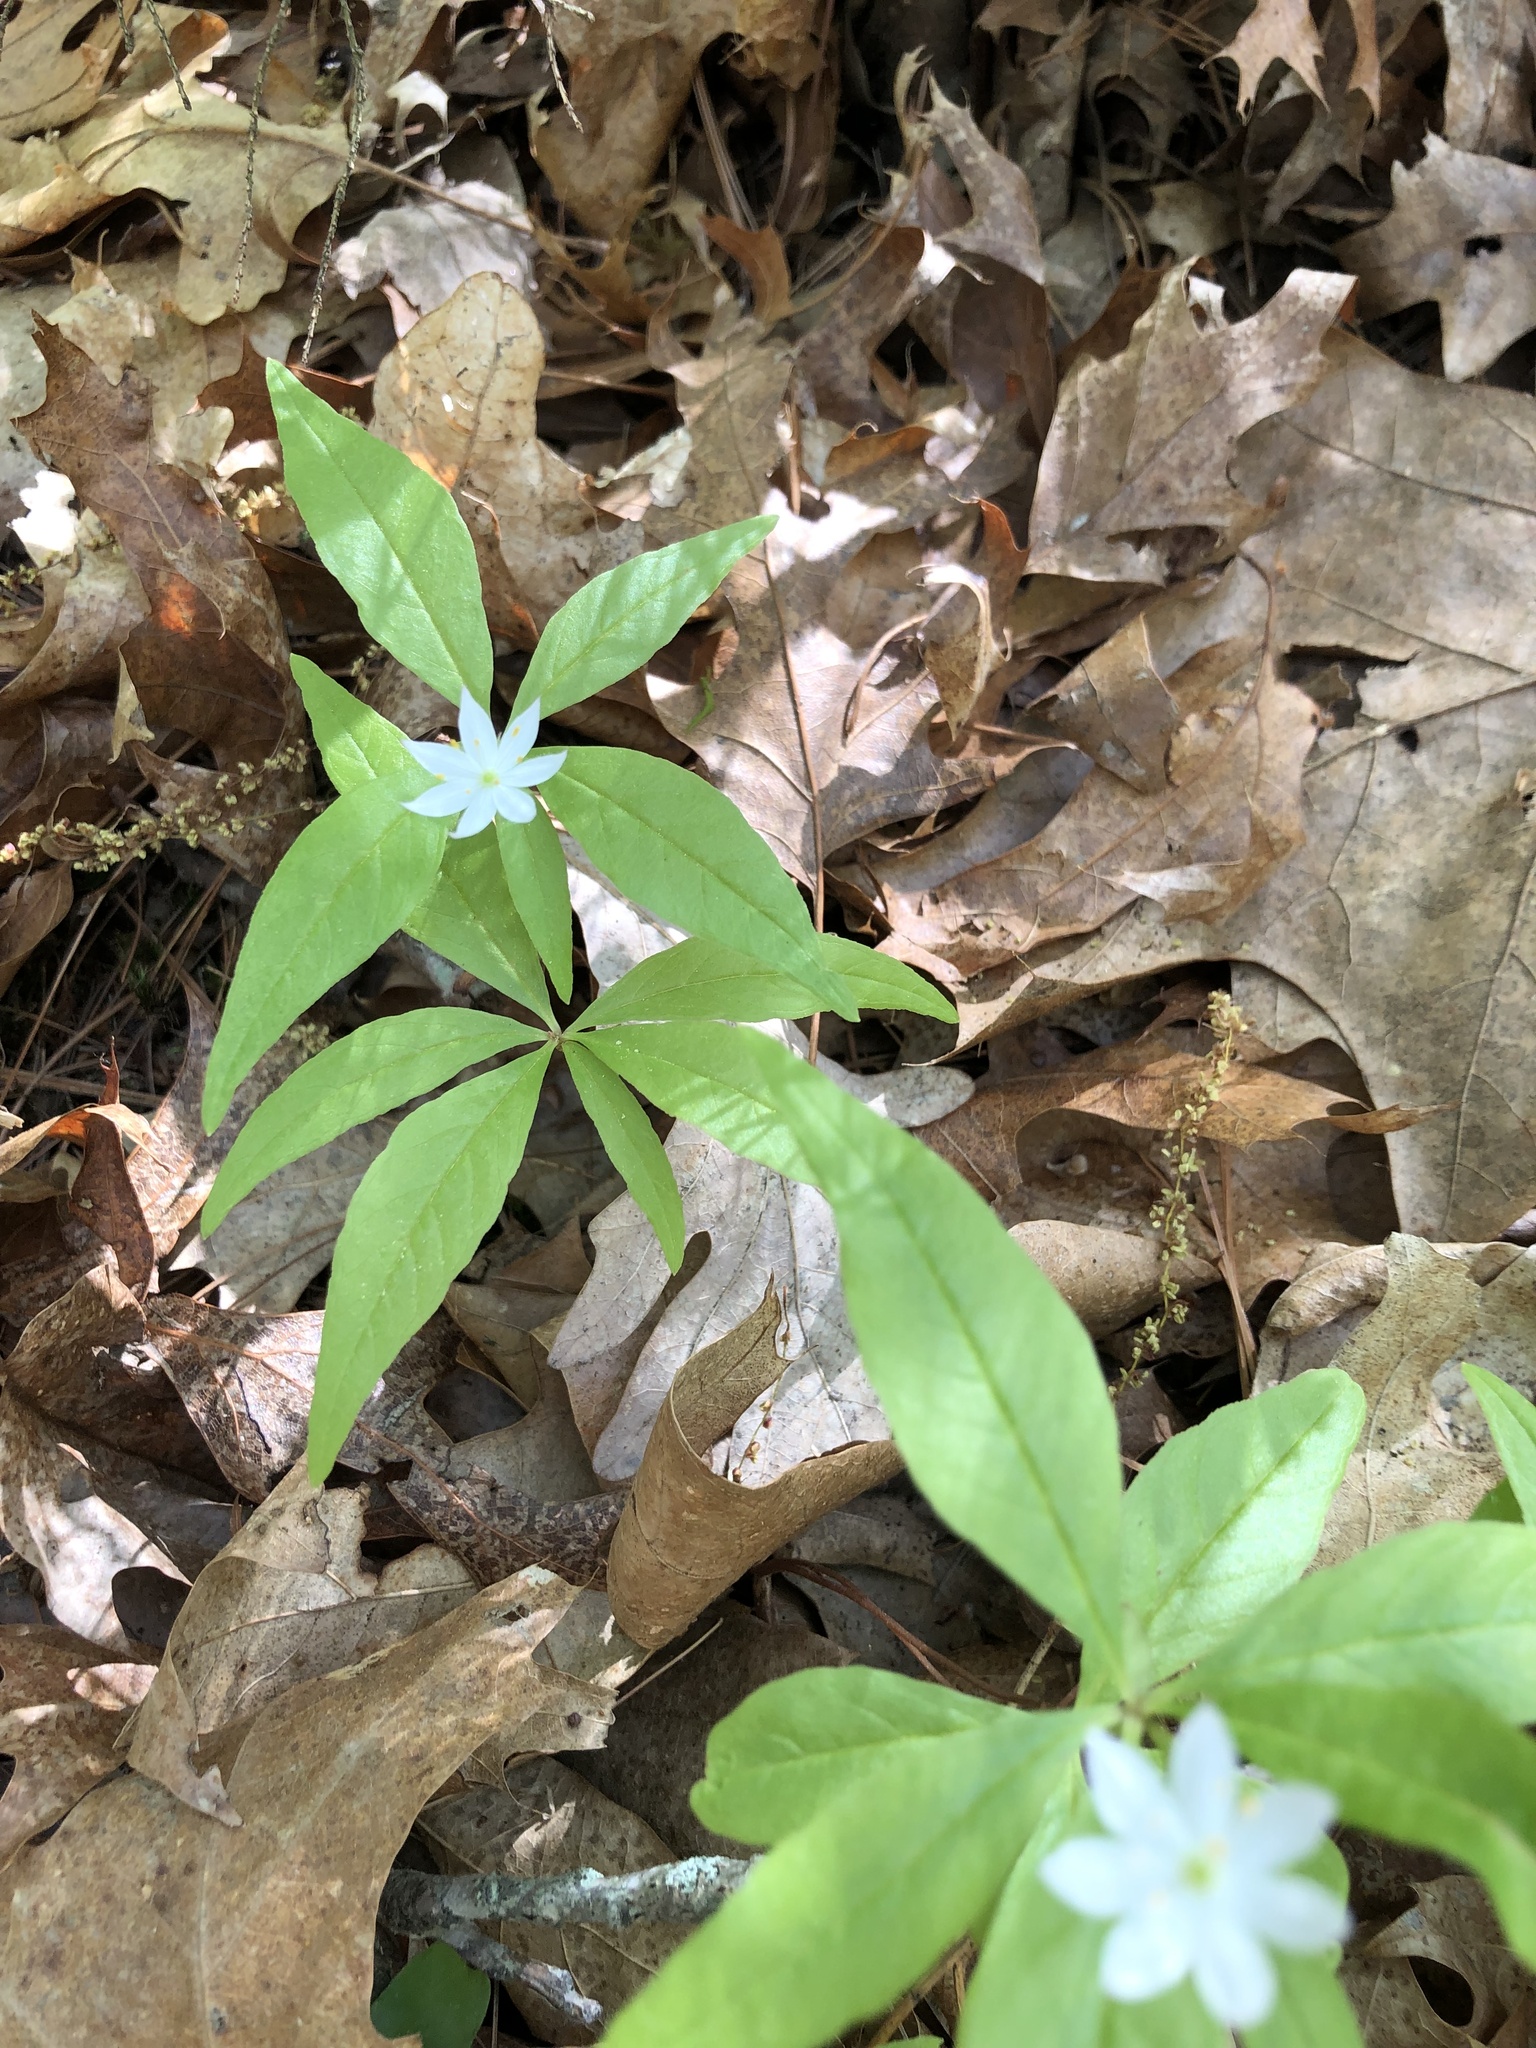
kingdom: Plantae
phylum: Tracheophyta
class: Magnoliopsida
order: Ericales
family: Primulaceae
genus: Lysimachia
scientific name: Lysimachia borealis
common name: American starflower
